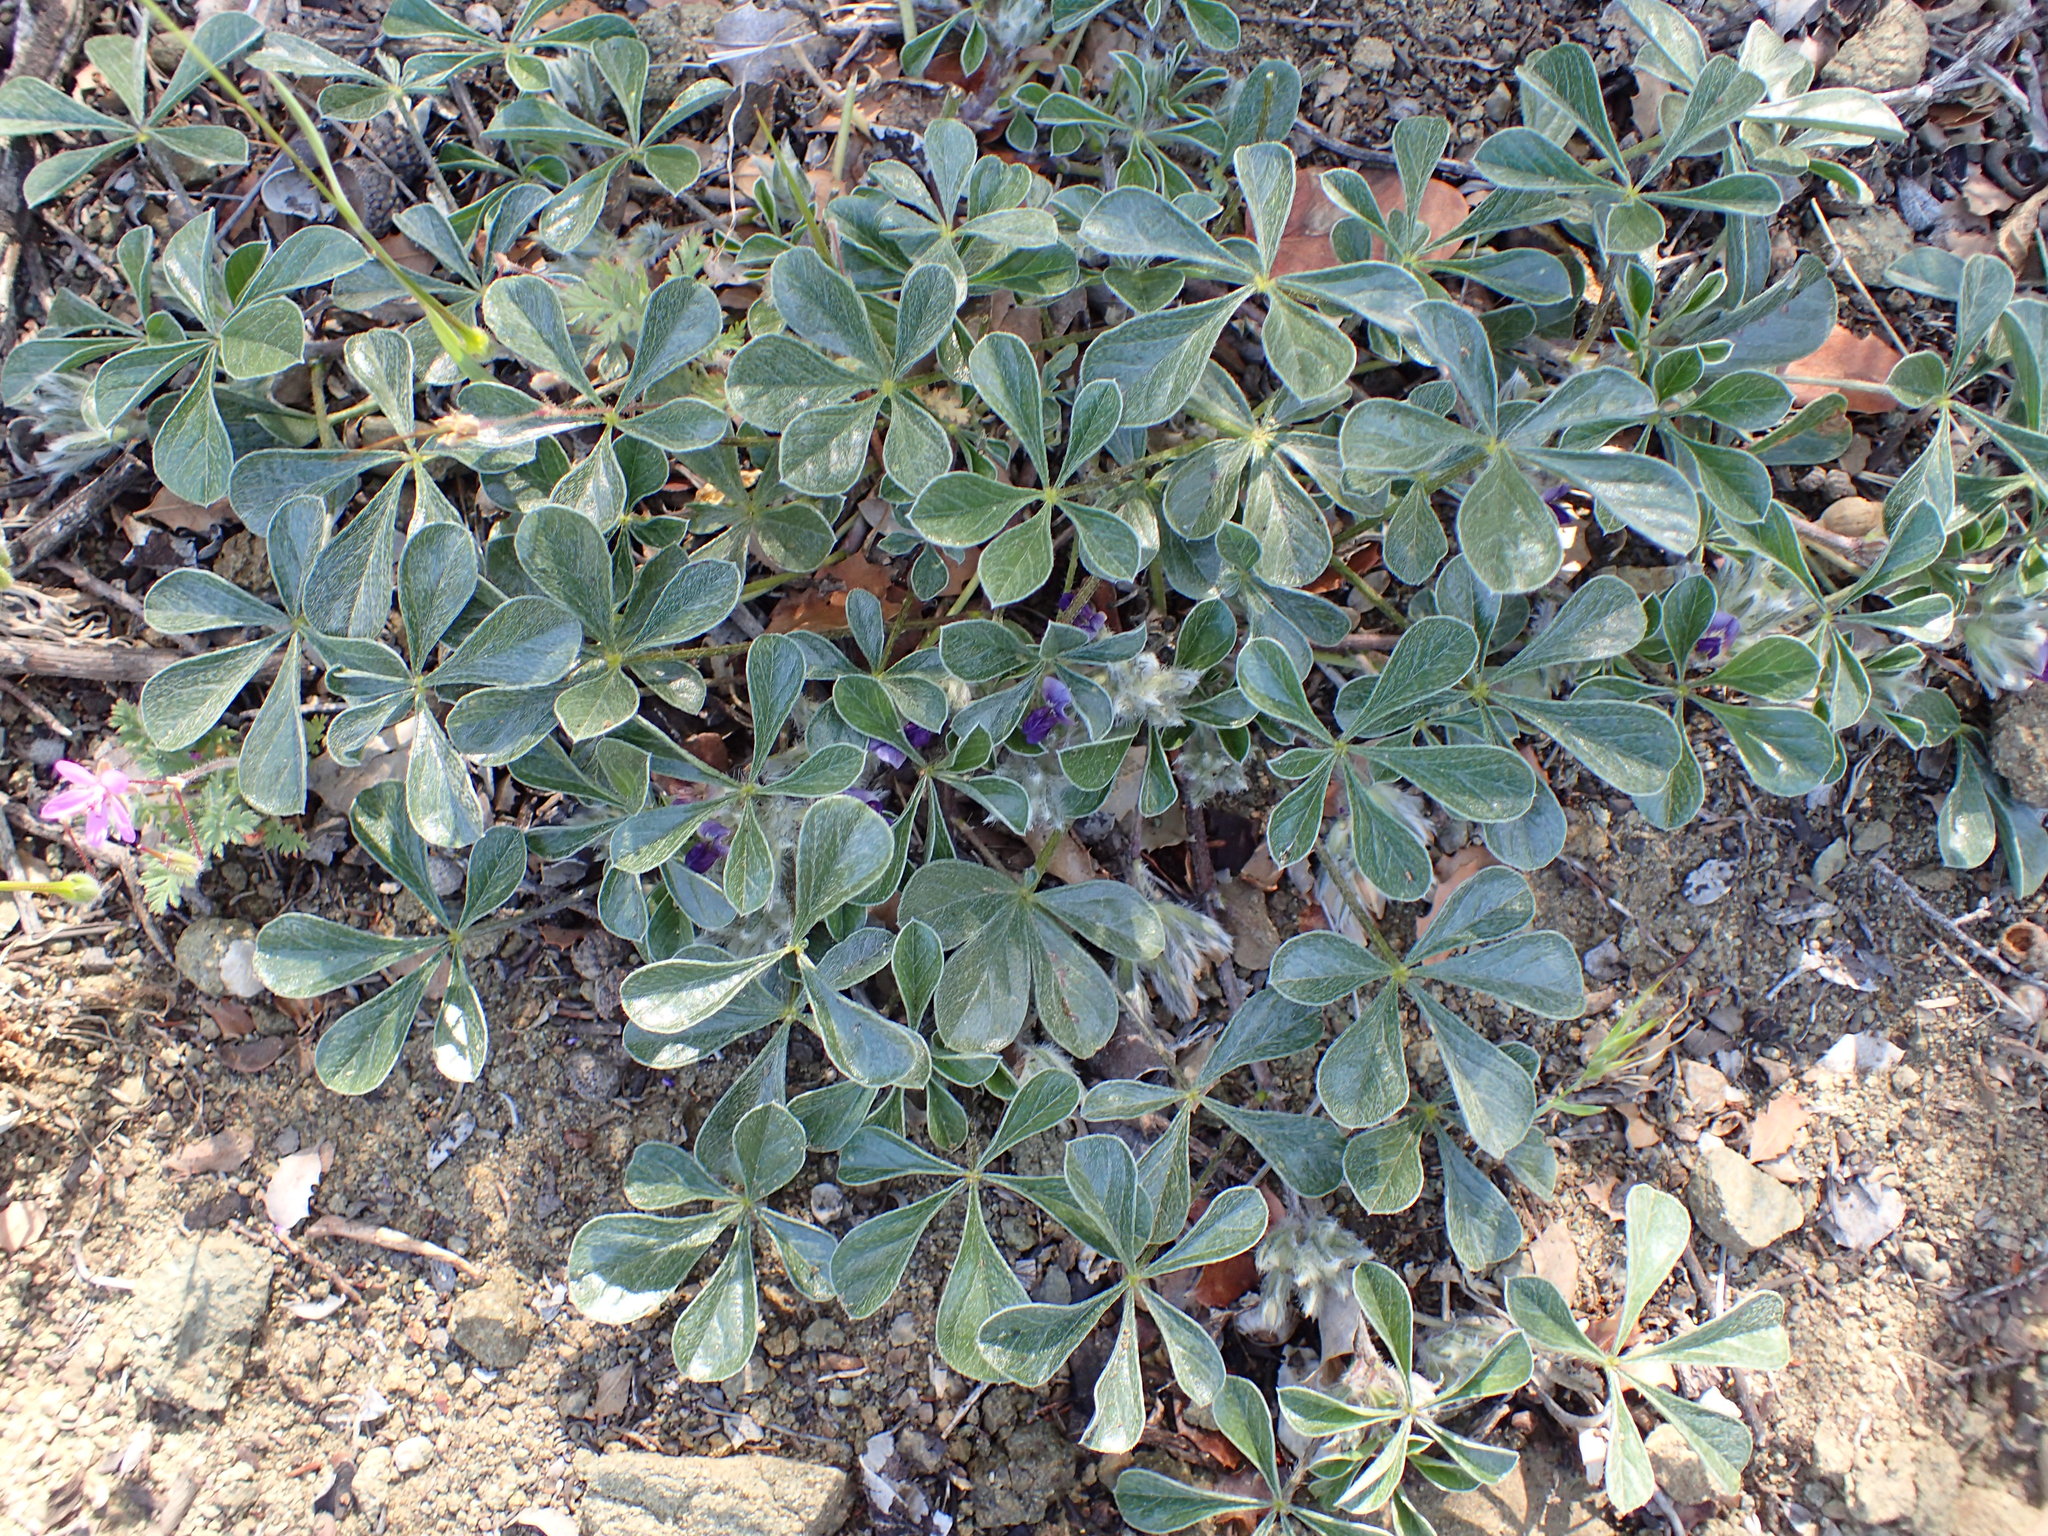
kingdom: Plantae
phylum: Tracheophyta
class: Magnoliopsida
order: Fabales
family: Fabaceae
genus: Pediomelum
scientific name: Pediomelum californicum
